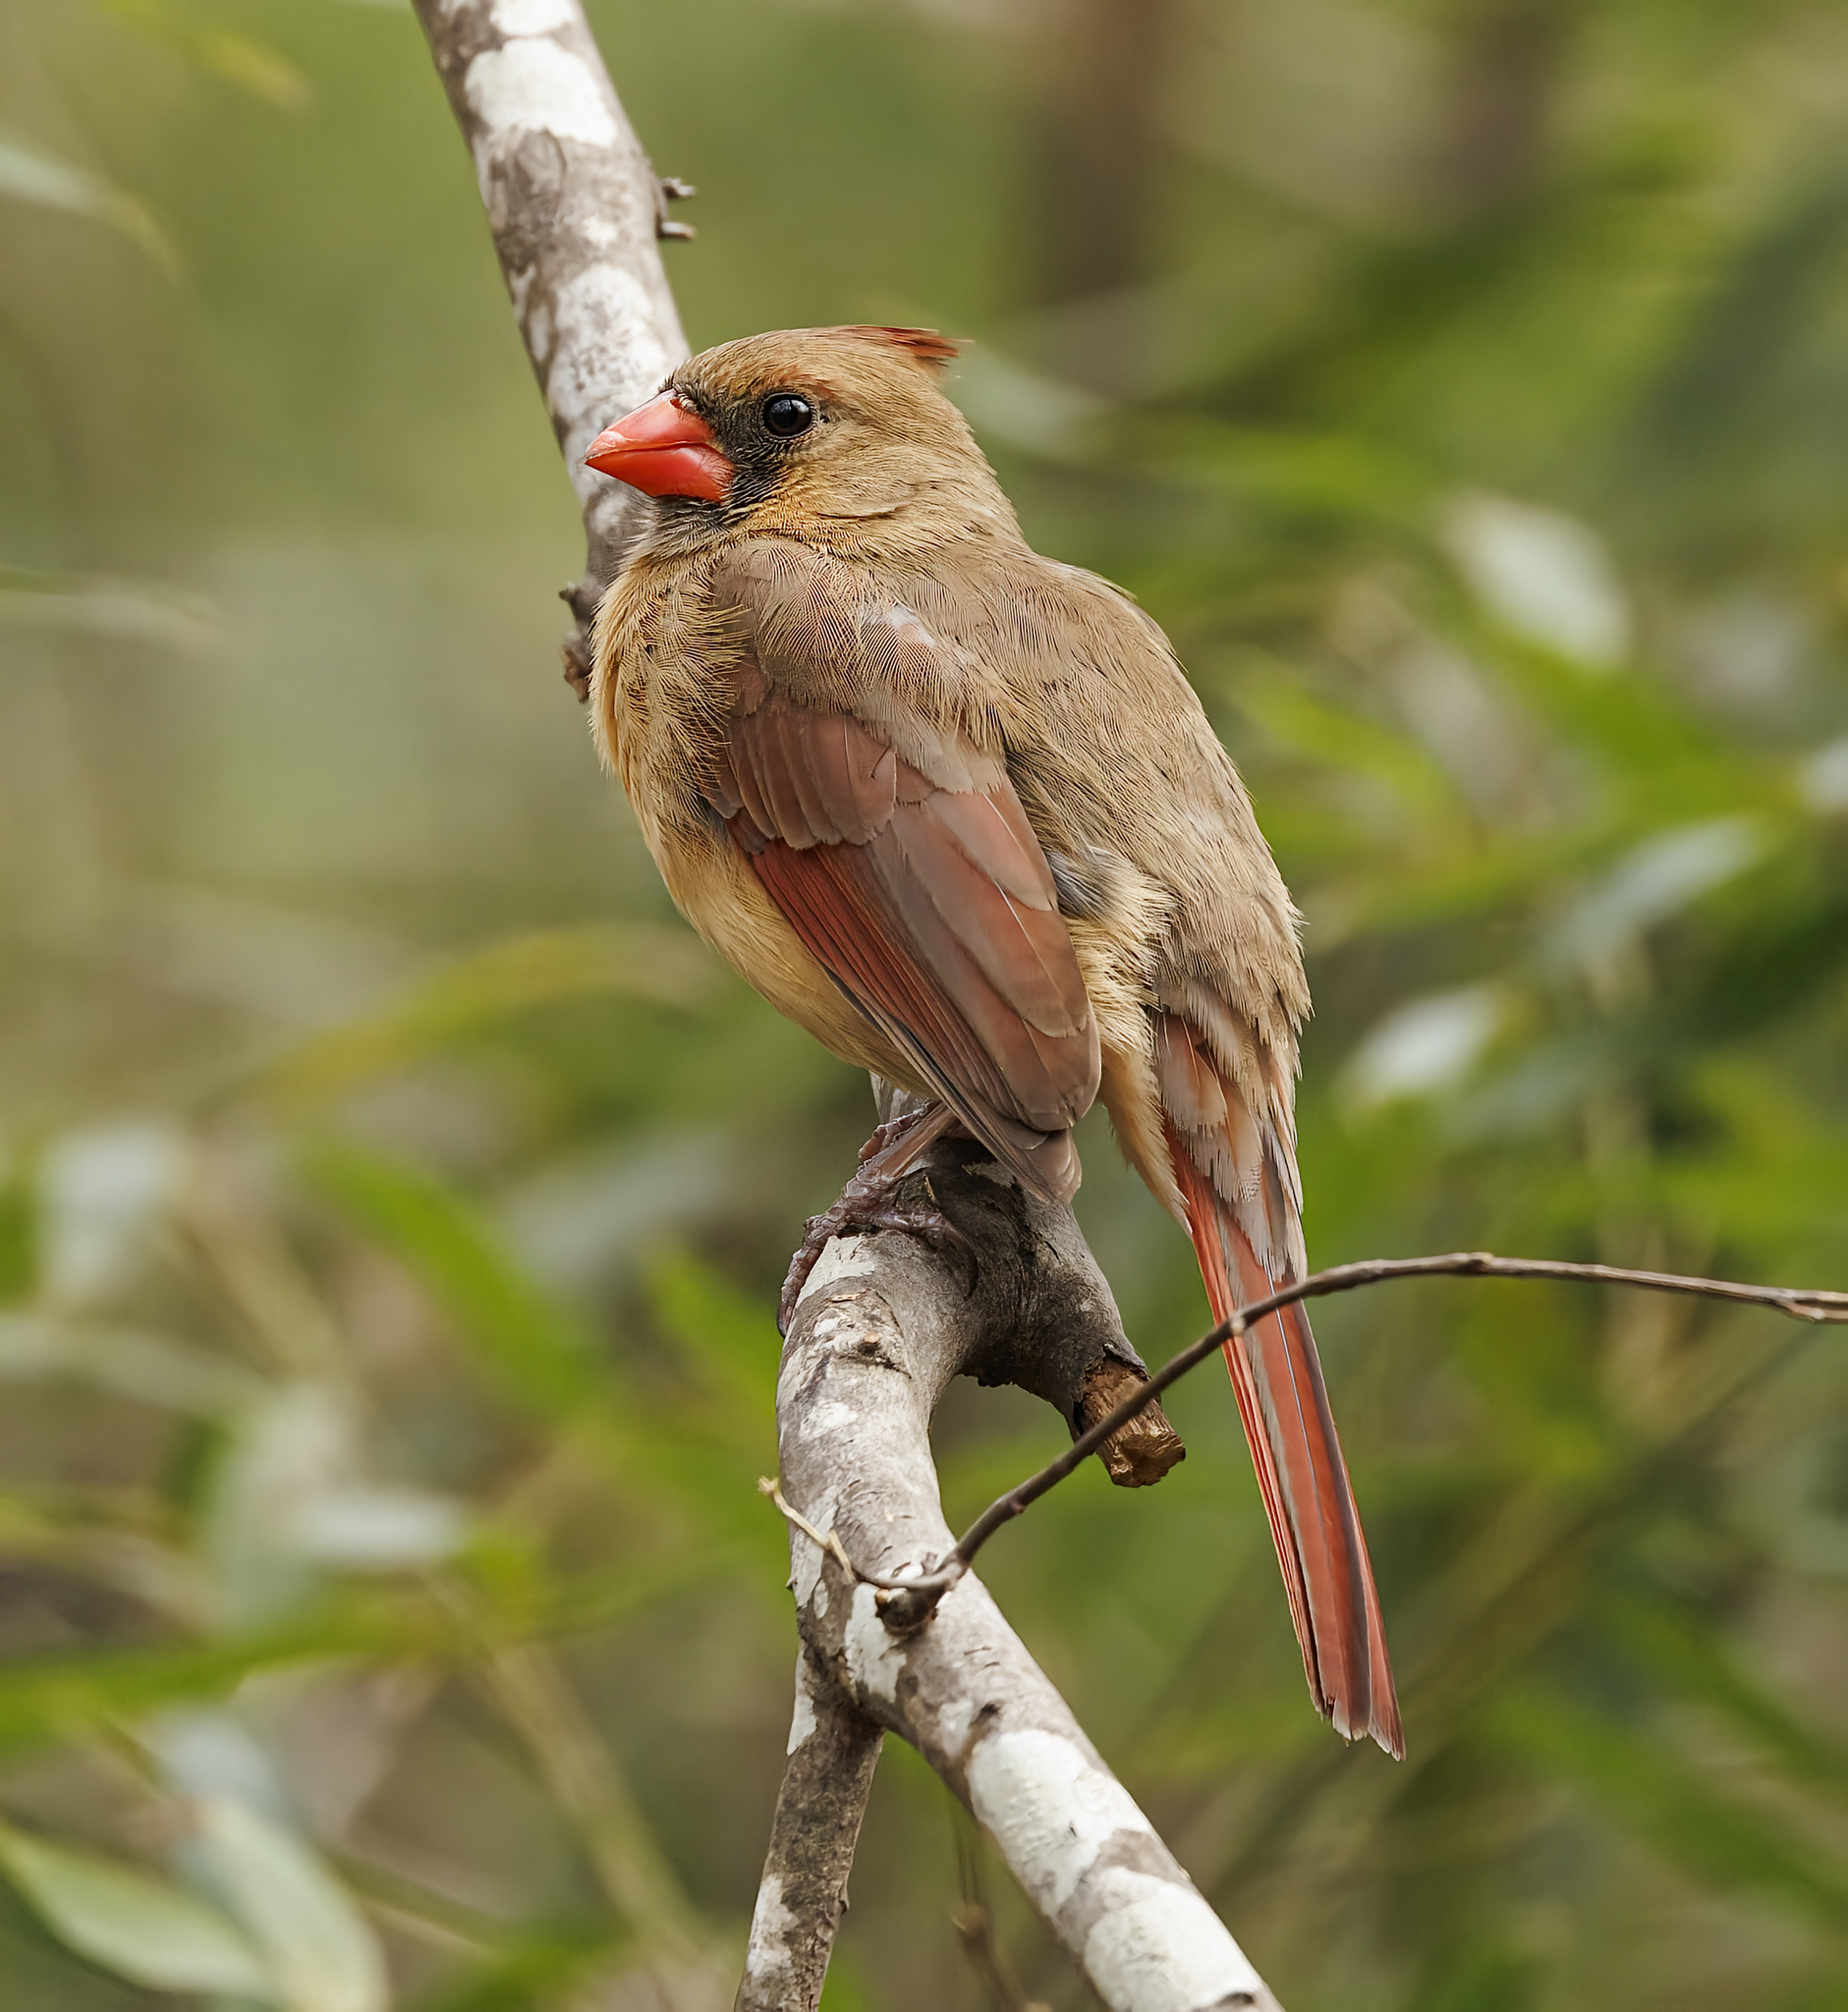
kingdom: Animalia
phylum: Chordata
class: Aves
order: Passeriformes
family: Cardinalidae
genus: Cardinalis
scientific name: Cardinalis cardinalis
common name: Northern cardinal
